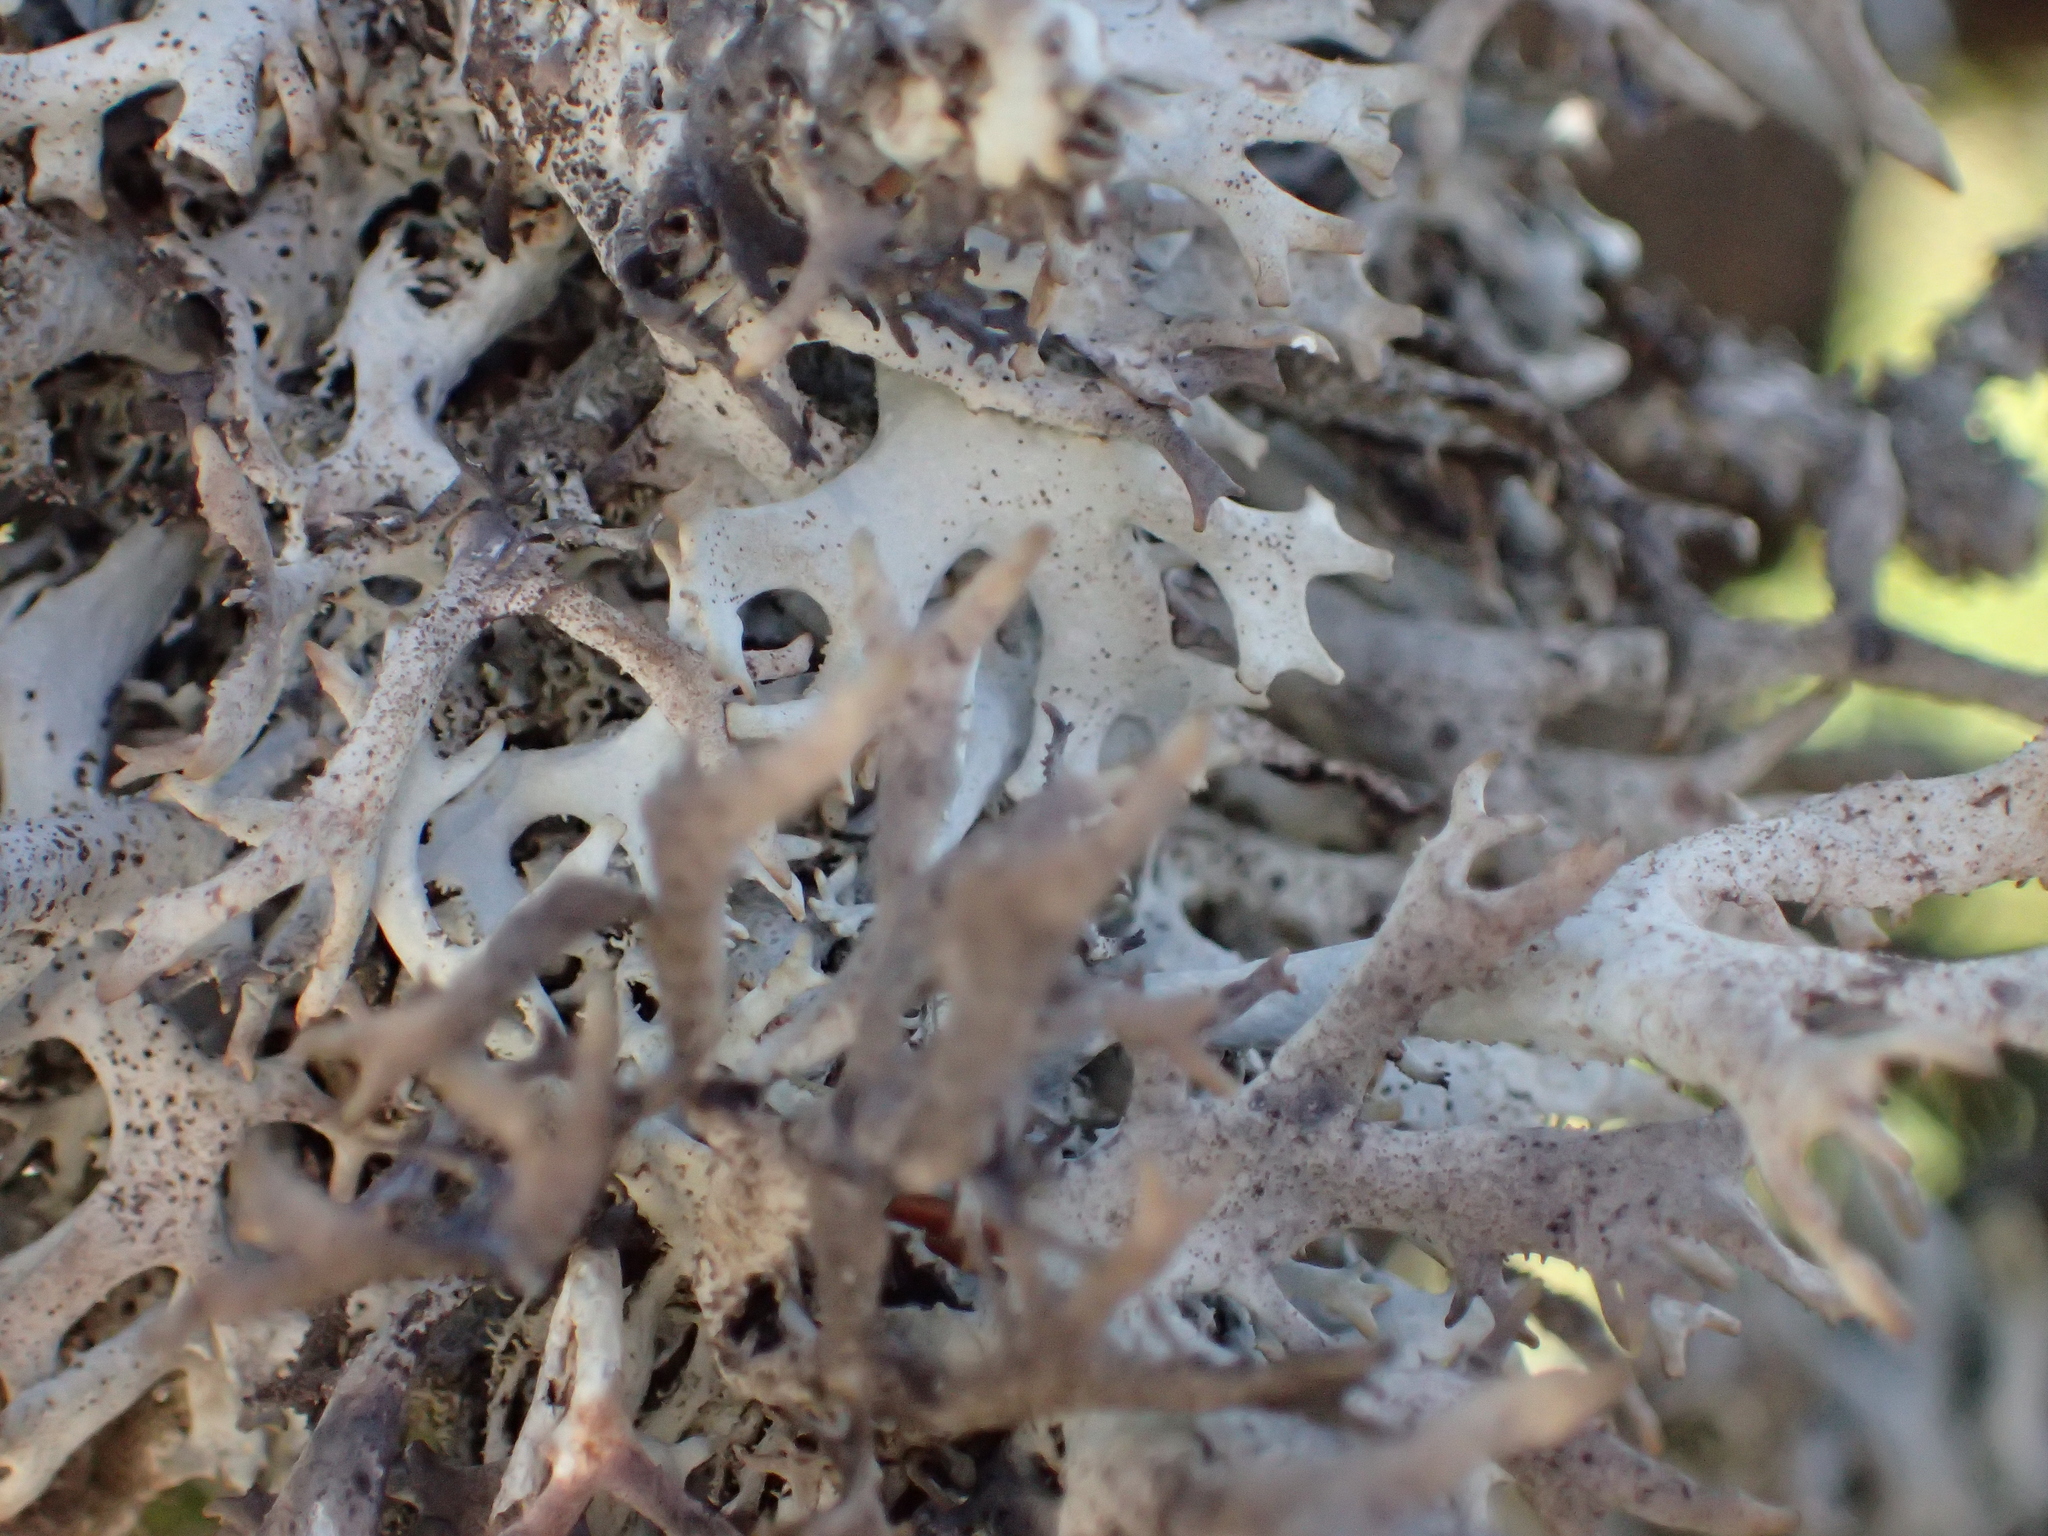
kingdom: Fungi
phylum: Ascomycota
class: Lecanoromycetes
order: Lecanorales
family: Parmeliaceae
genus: Pseudevernia
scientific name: Pseudevernia furfuracea
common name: Tree moss
